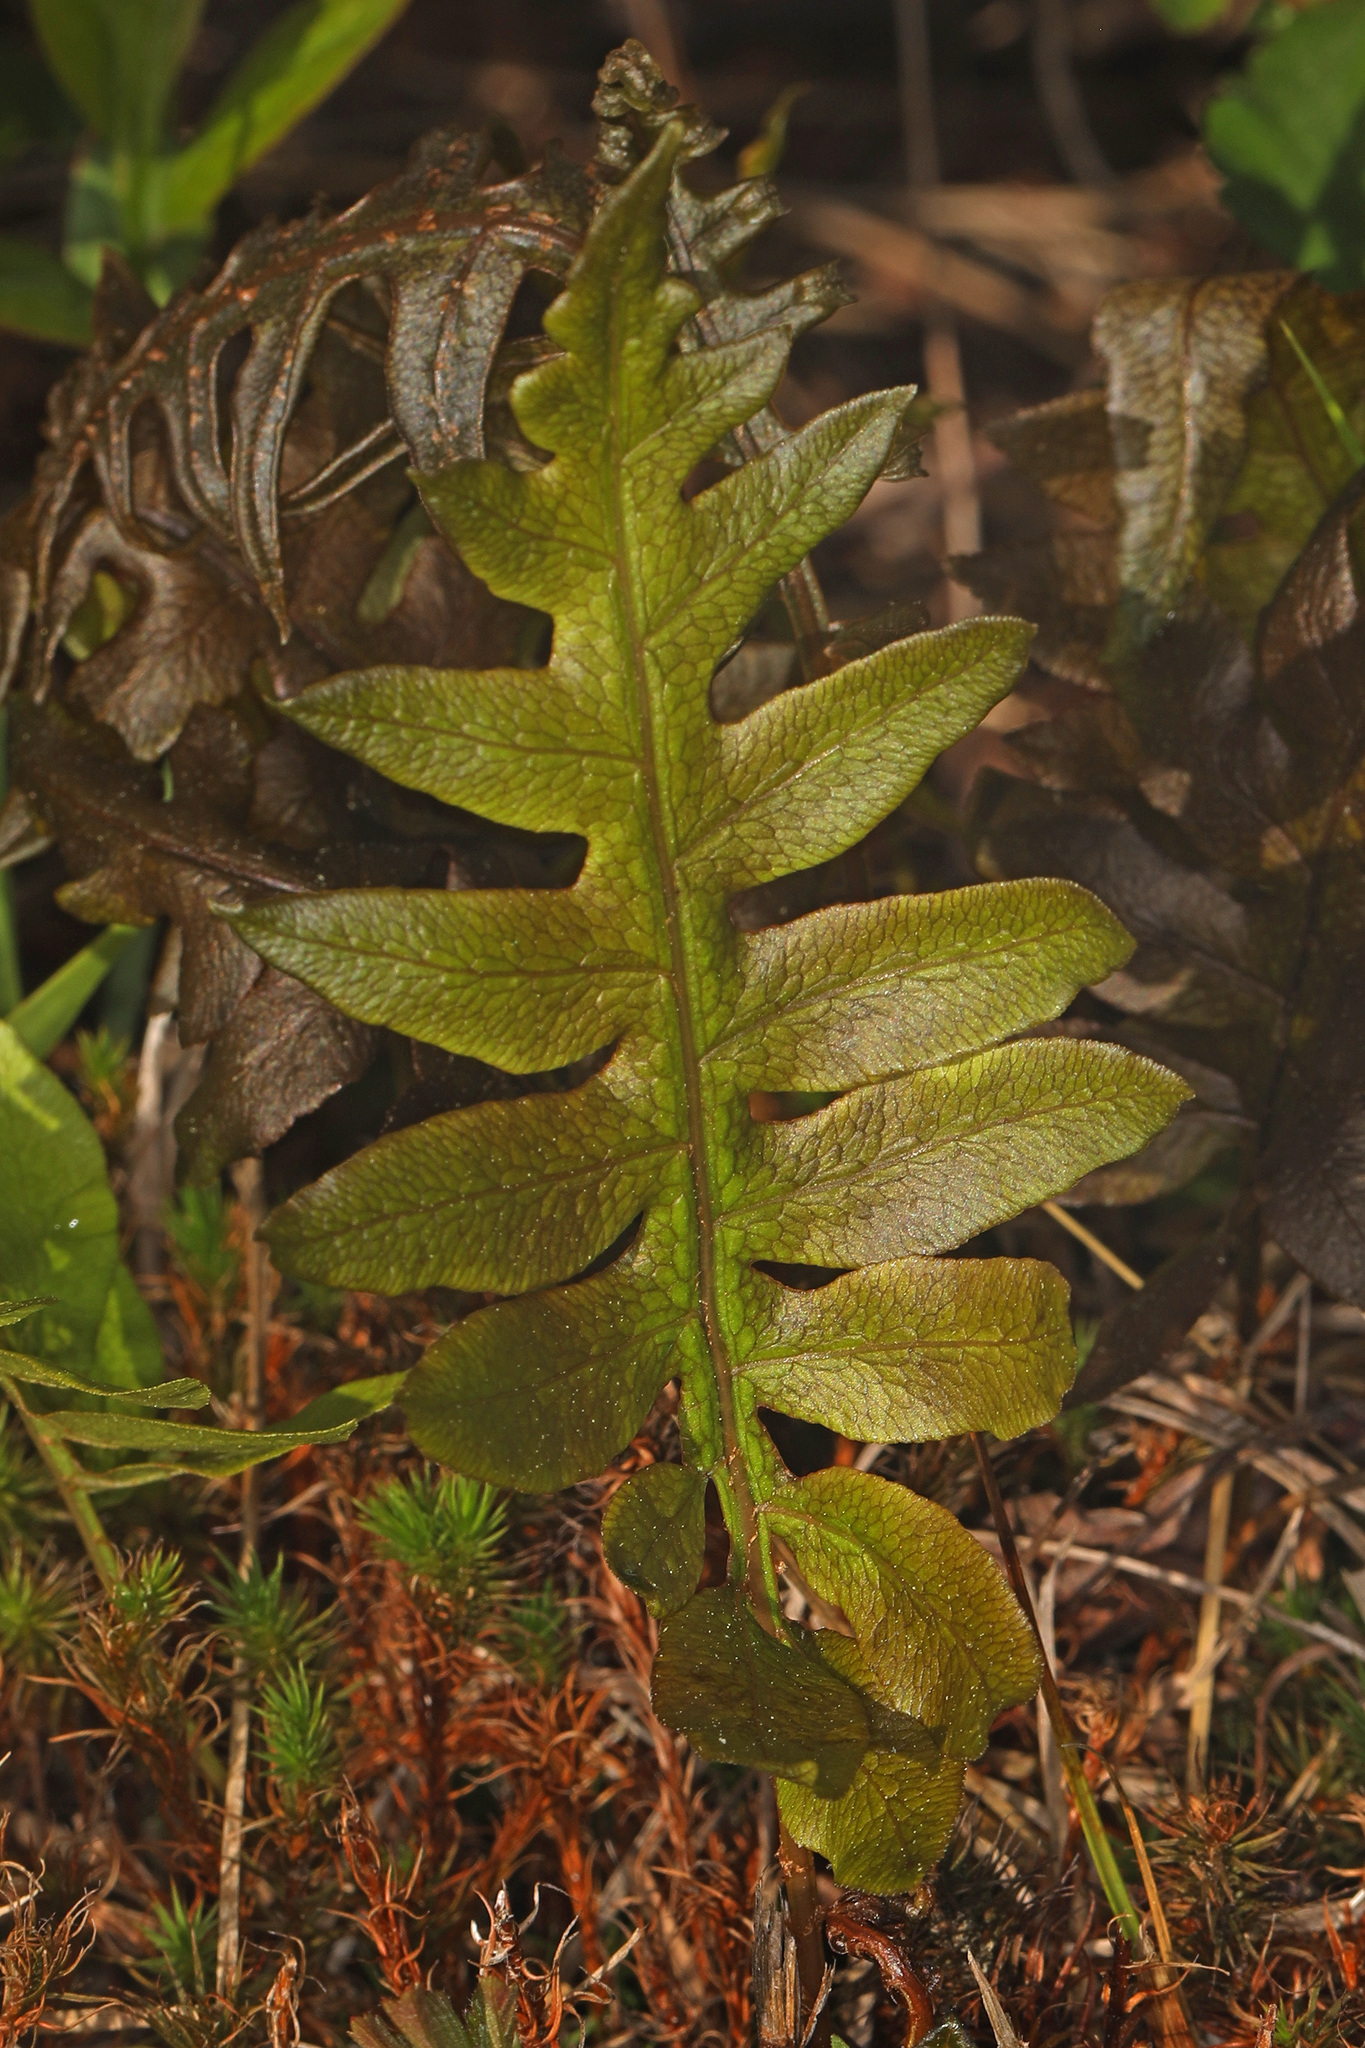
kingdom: Plantae
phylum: Tracheophyta
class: Polypodiopsida
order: Polypodiales
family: Blechnaceae
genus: Lorinseria
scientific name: Lorinseria areolata
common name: Dwarf chain fern
